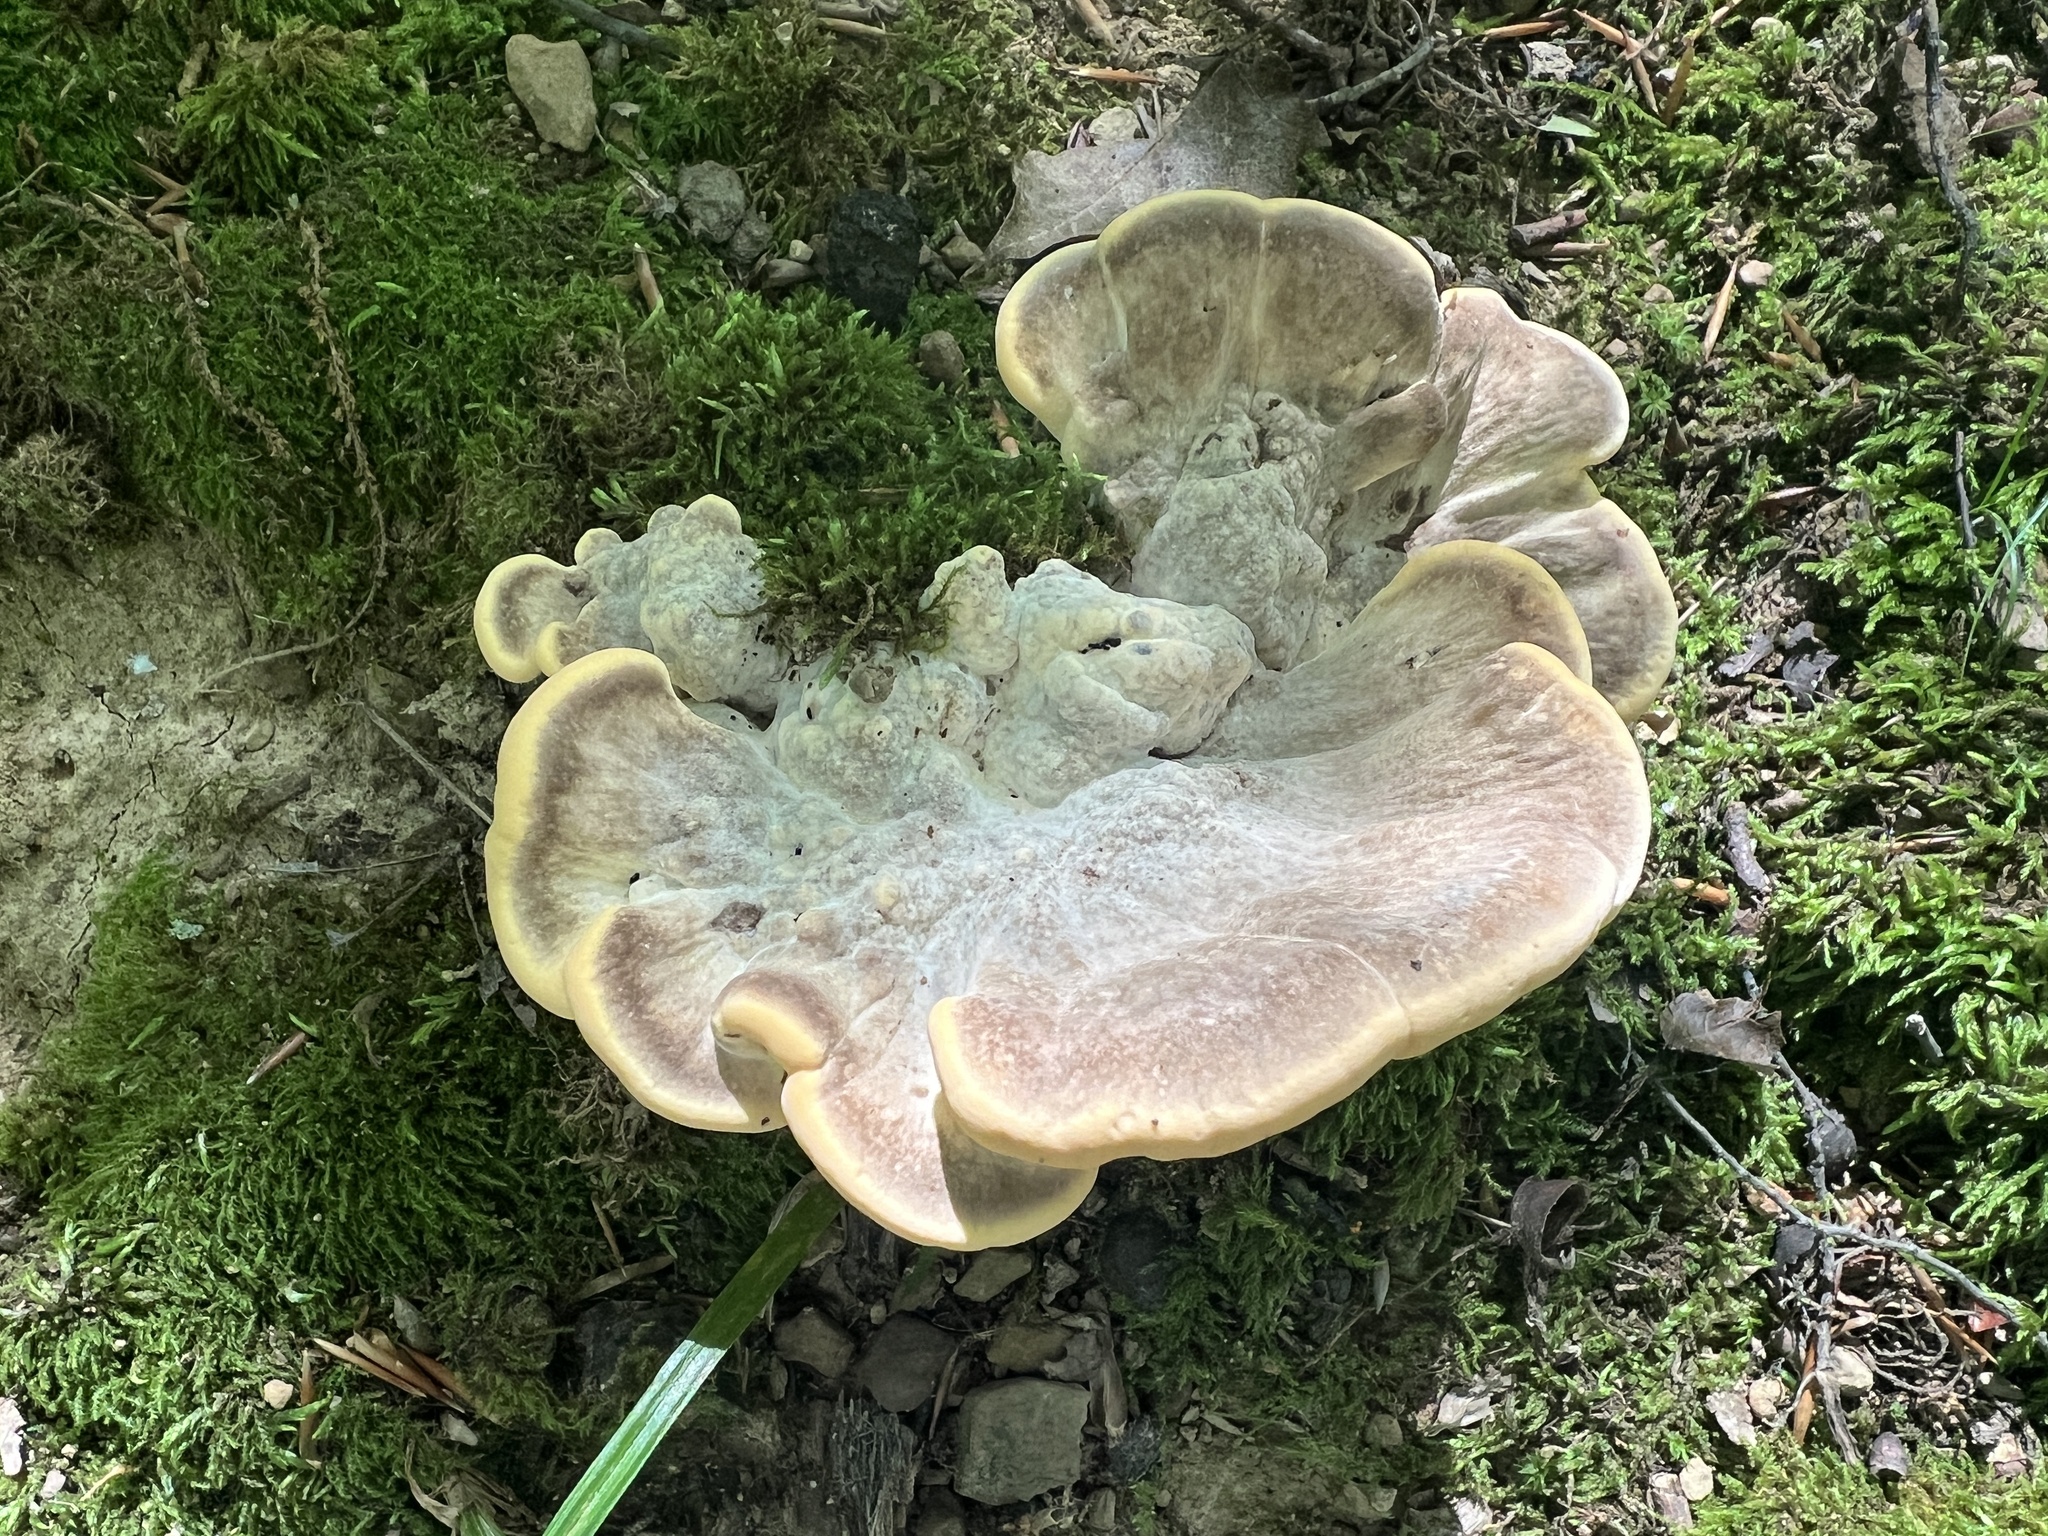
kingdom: Fungi
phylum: Basidiomycota
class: Agaricomycetes
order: Polyporales
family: Meripilaceae
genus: Meripilus
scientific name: Meripilus sumstinei
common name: Black-staining polypore
